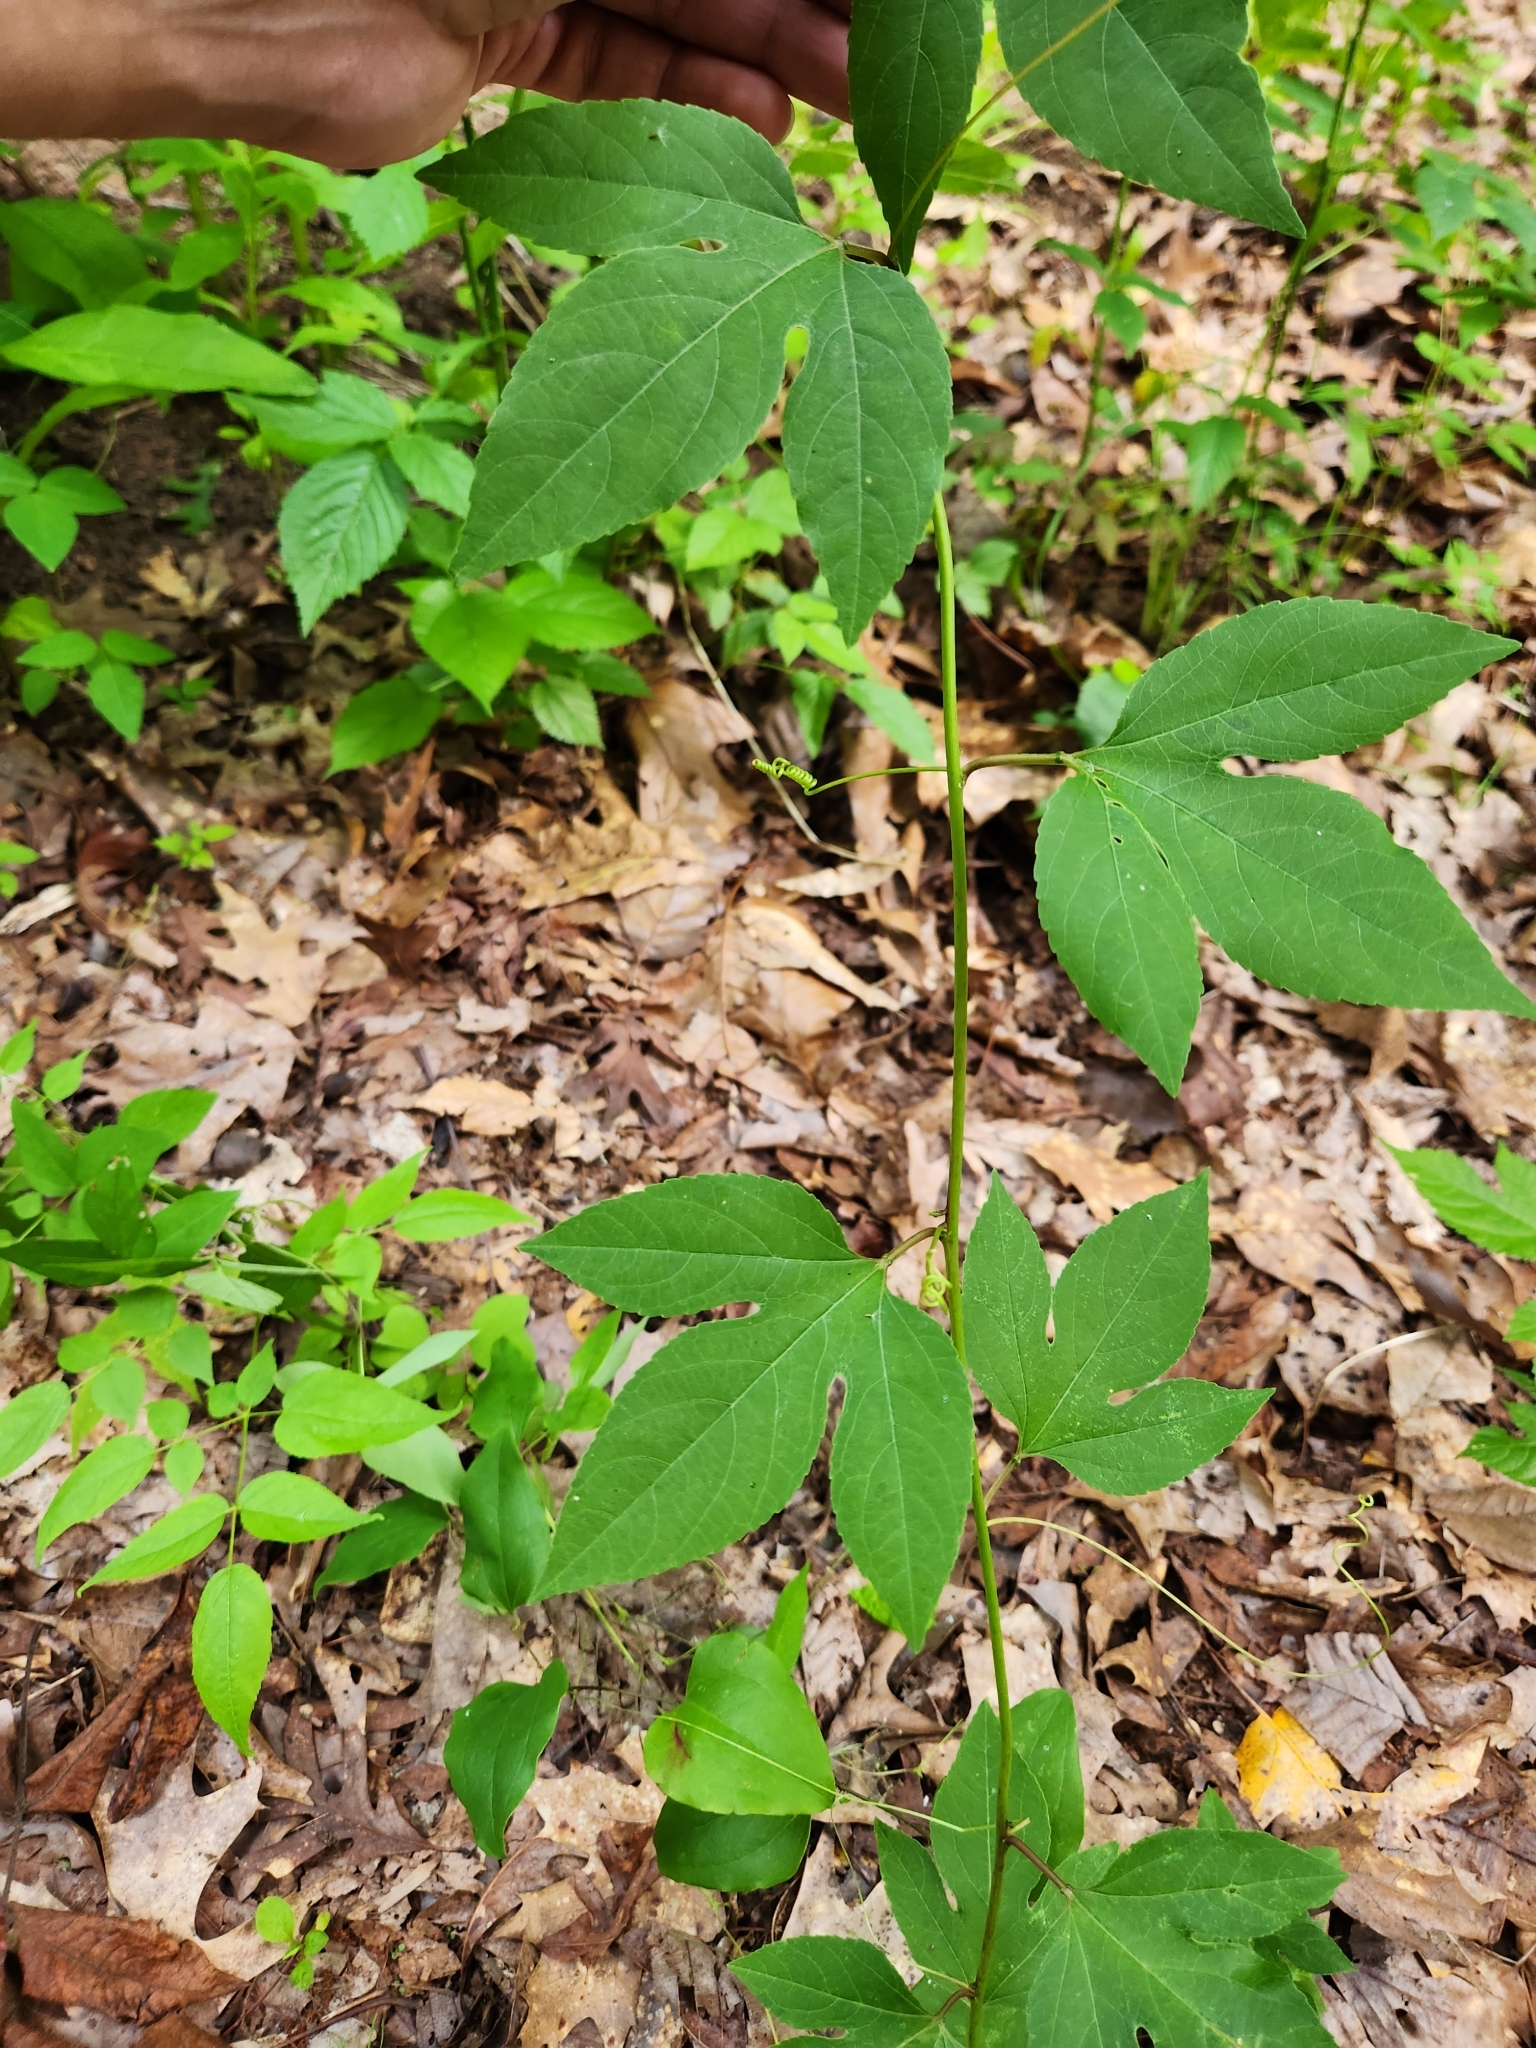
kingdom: Plantae
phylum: Tracheophyta
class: Magnoliopsida
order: Malpighiales
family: Passifloraceae
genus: Passiflora
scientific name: Passiflora incarnata
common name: Apricot-vine
